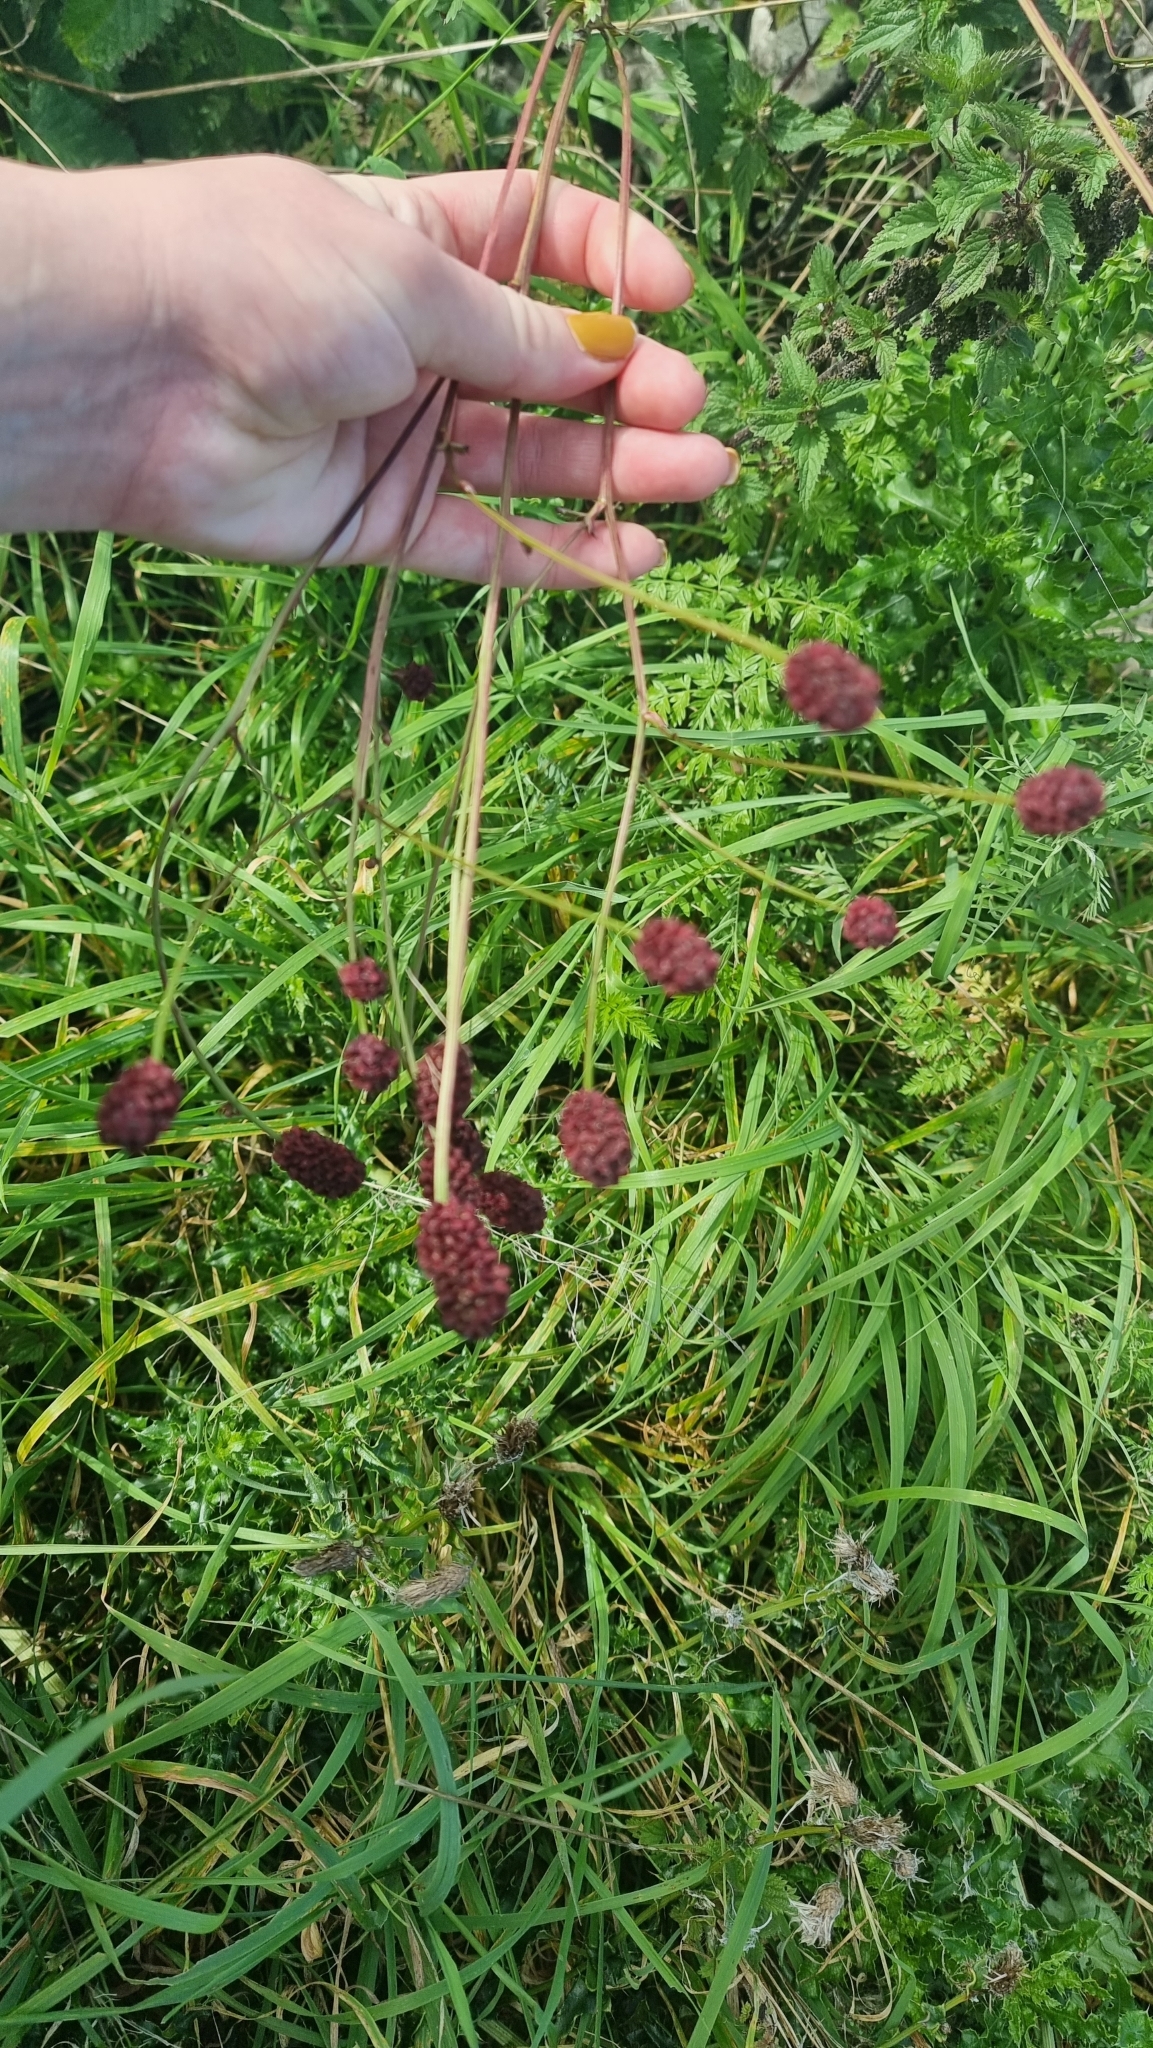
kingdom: Plantae
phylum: Tracheophyta
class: Magnoliopsida
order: Rosales
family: Rosaceae
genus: Sanguisorba
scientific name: Sanguisorba officinalis
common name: Great burnet
